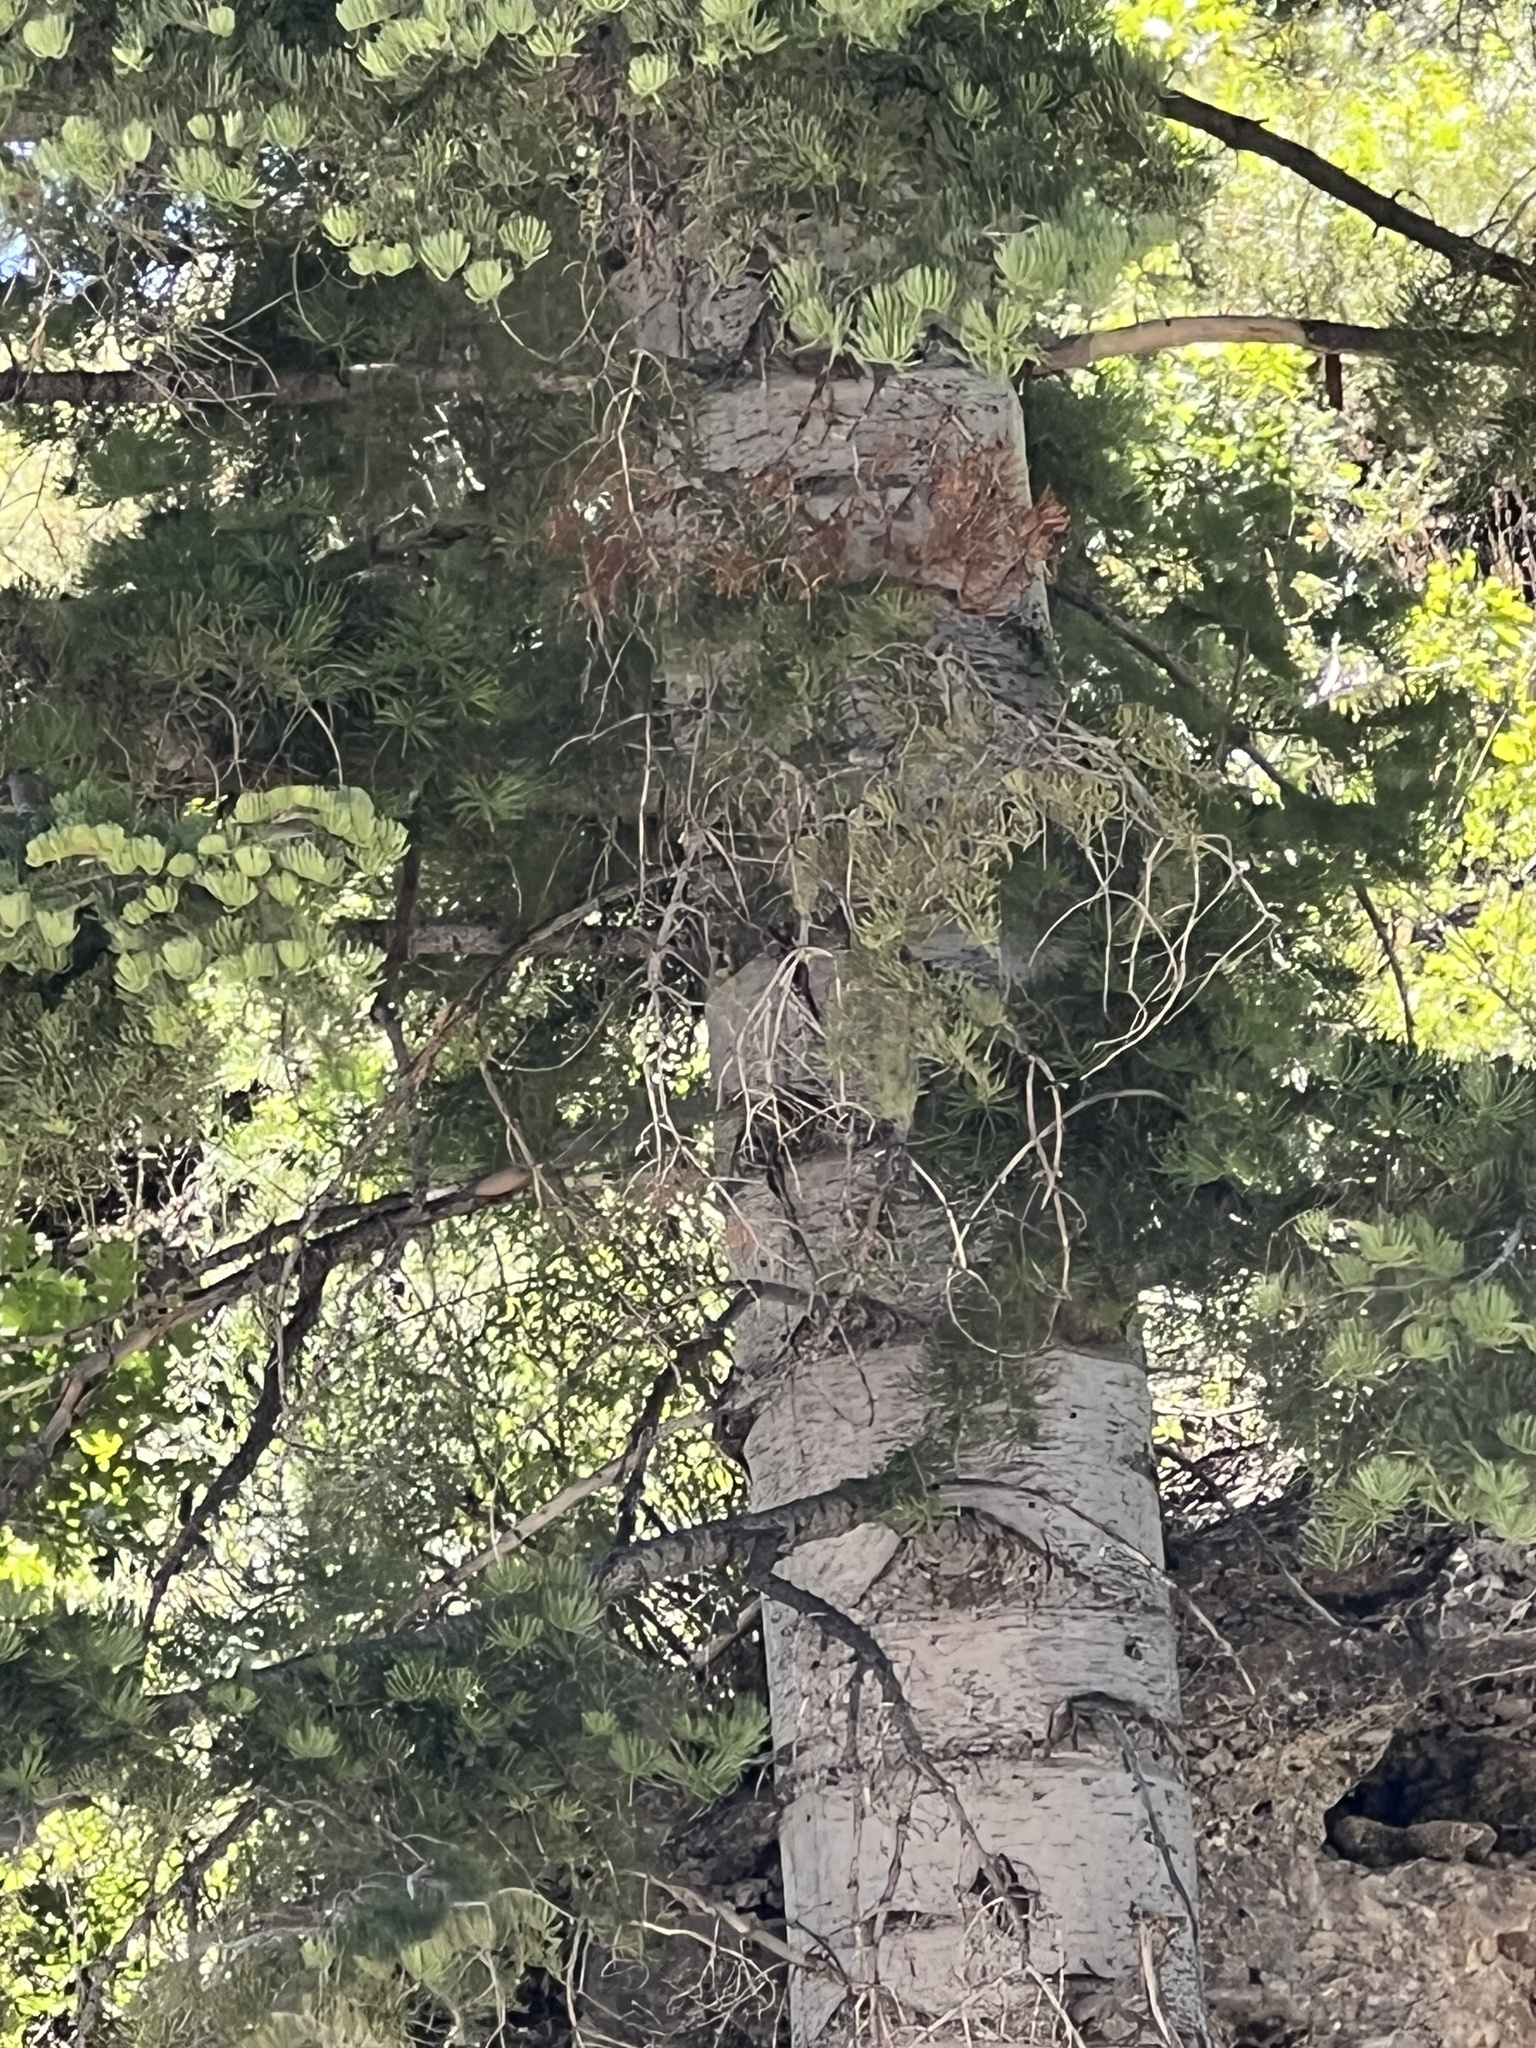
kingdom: Plantae
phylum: Tracheophyta
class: Pinopsida
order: Pinales
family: Pinaceae
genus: Abies
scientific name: Abies concolor
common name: Colorado fir
